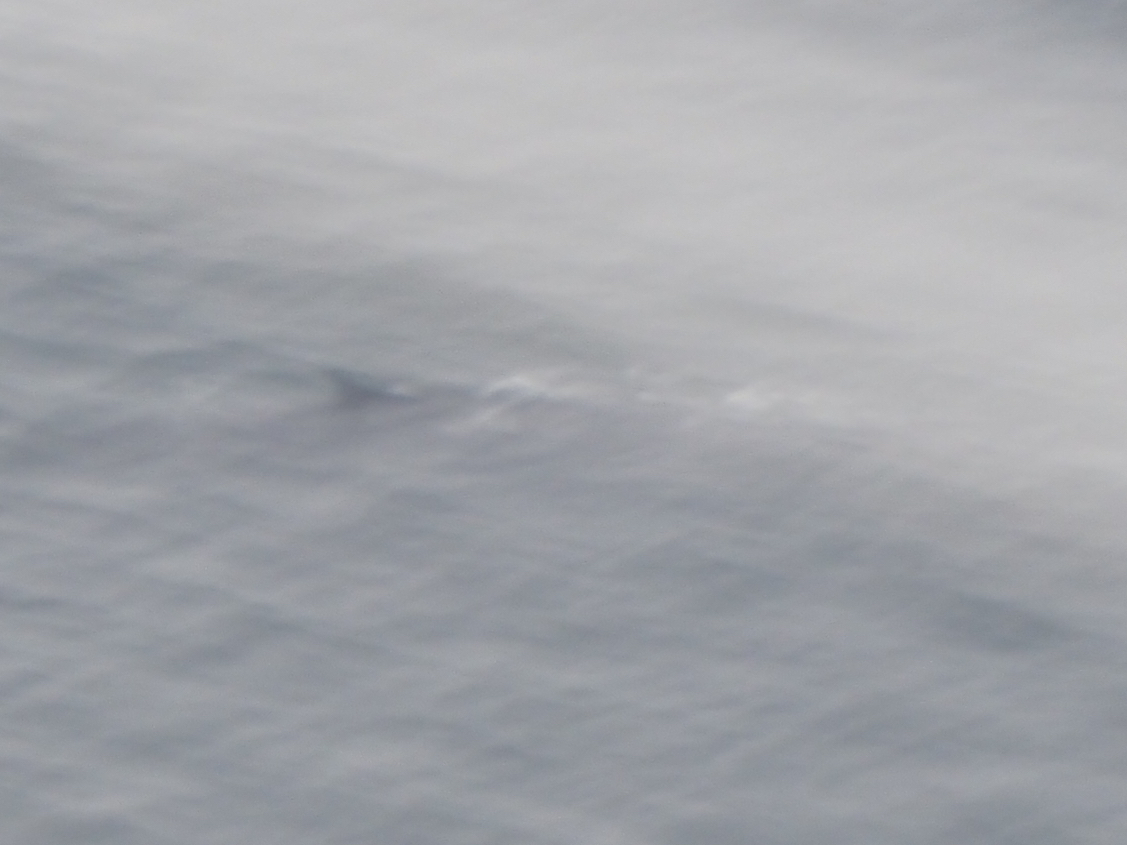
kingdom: Animalia
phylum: Chordata
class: Mammalia
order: Cetacea
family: Balaenopteridae
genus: Balaenoptera
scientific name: Balaenoptera physalus
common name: Fin whale
